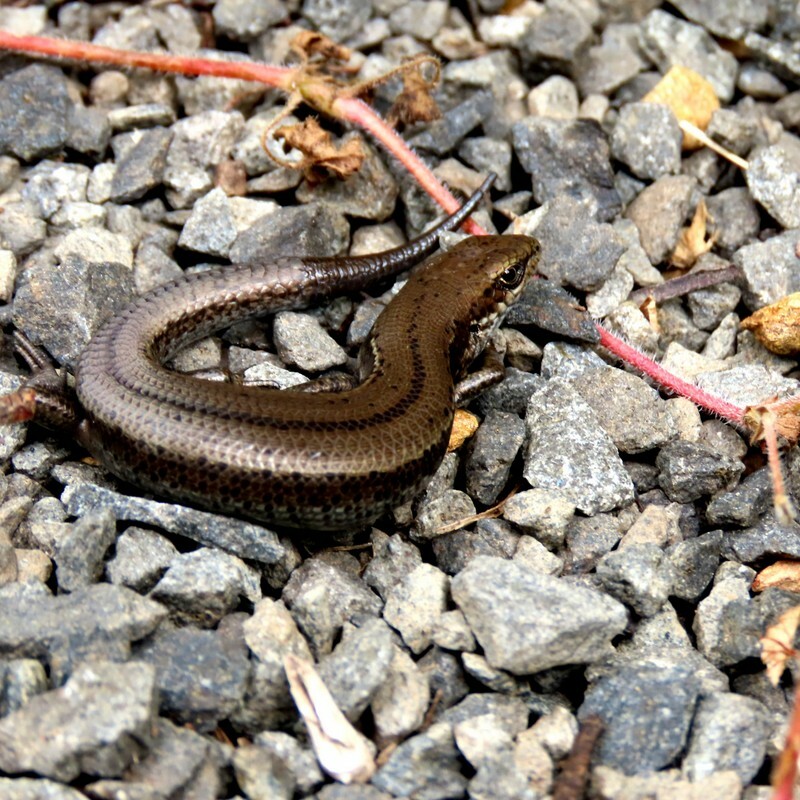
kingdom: Animalia
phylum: Chordata
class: Squamata
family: Scincidae
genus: Pseudemoia
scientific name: Pseudemoia entrecasteauxii
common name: Entrecasteaux's skink
